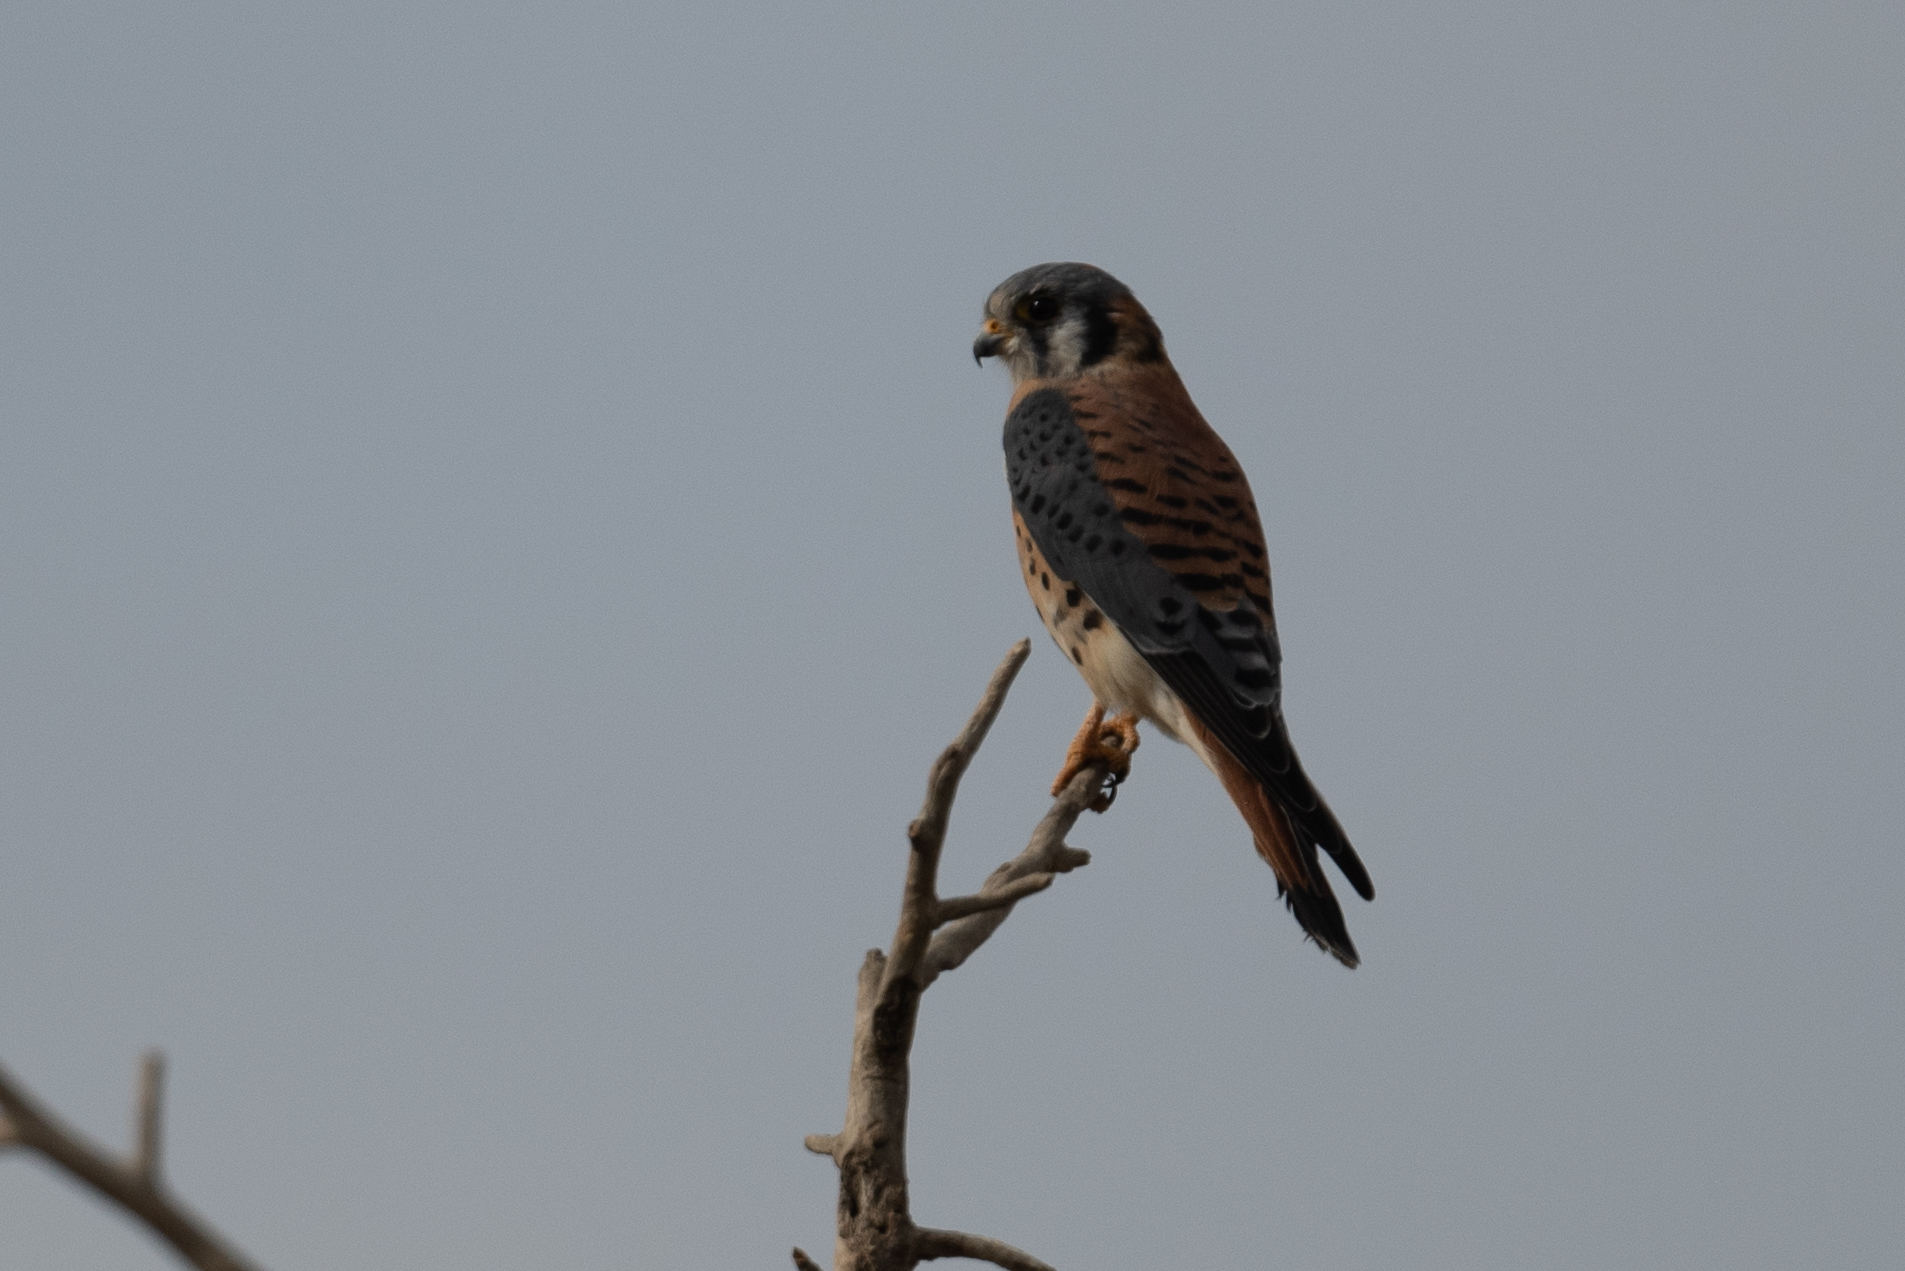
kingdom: Animalia
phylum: Chordata
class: Aves
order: Falconiformes
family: Falconidae
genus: Falco
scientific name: Falco sparverius
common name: American kestrel
